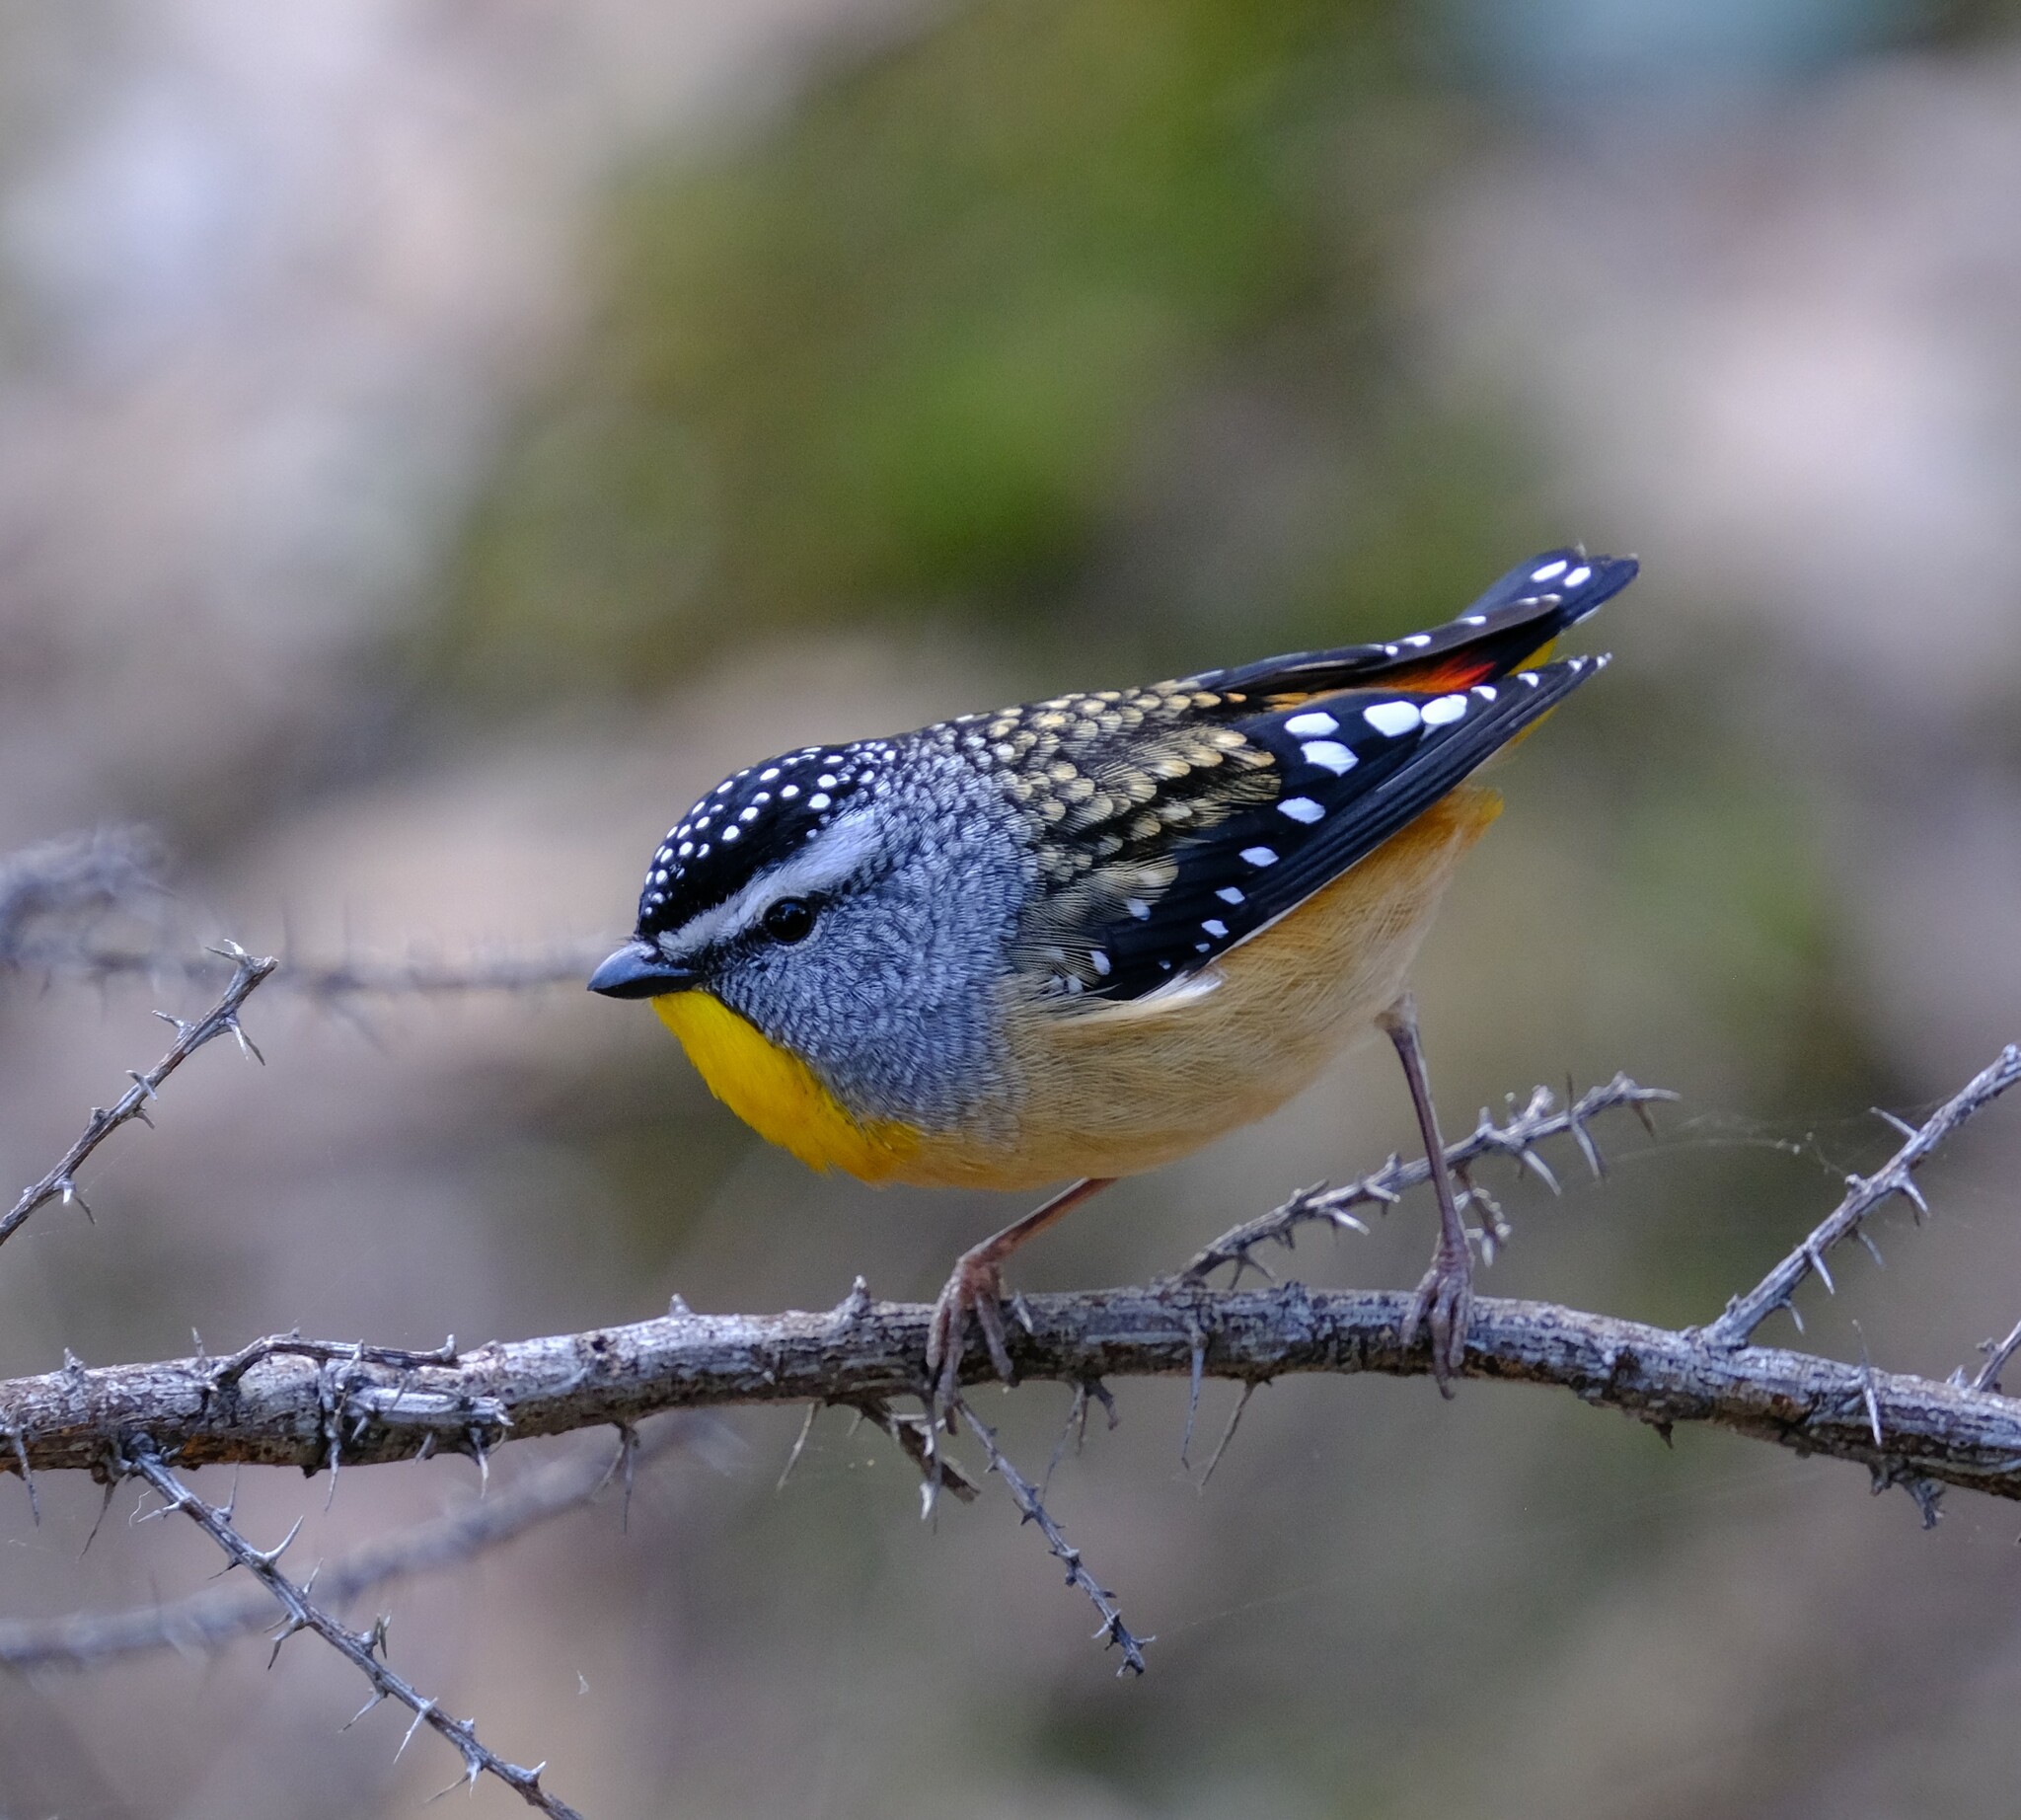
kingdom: Animalia
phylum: Chordata
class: Aves
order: Passeriformes
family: Pardalotidae
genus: Pardalotus
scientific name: Pardalotus punctatus
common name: Spotted pardalote
